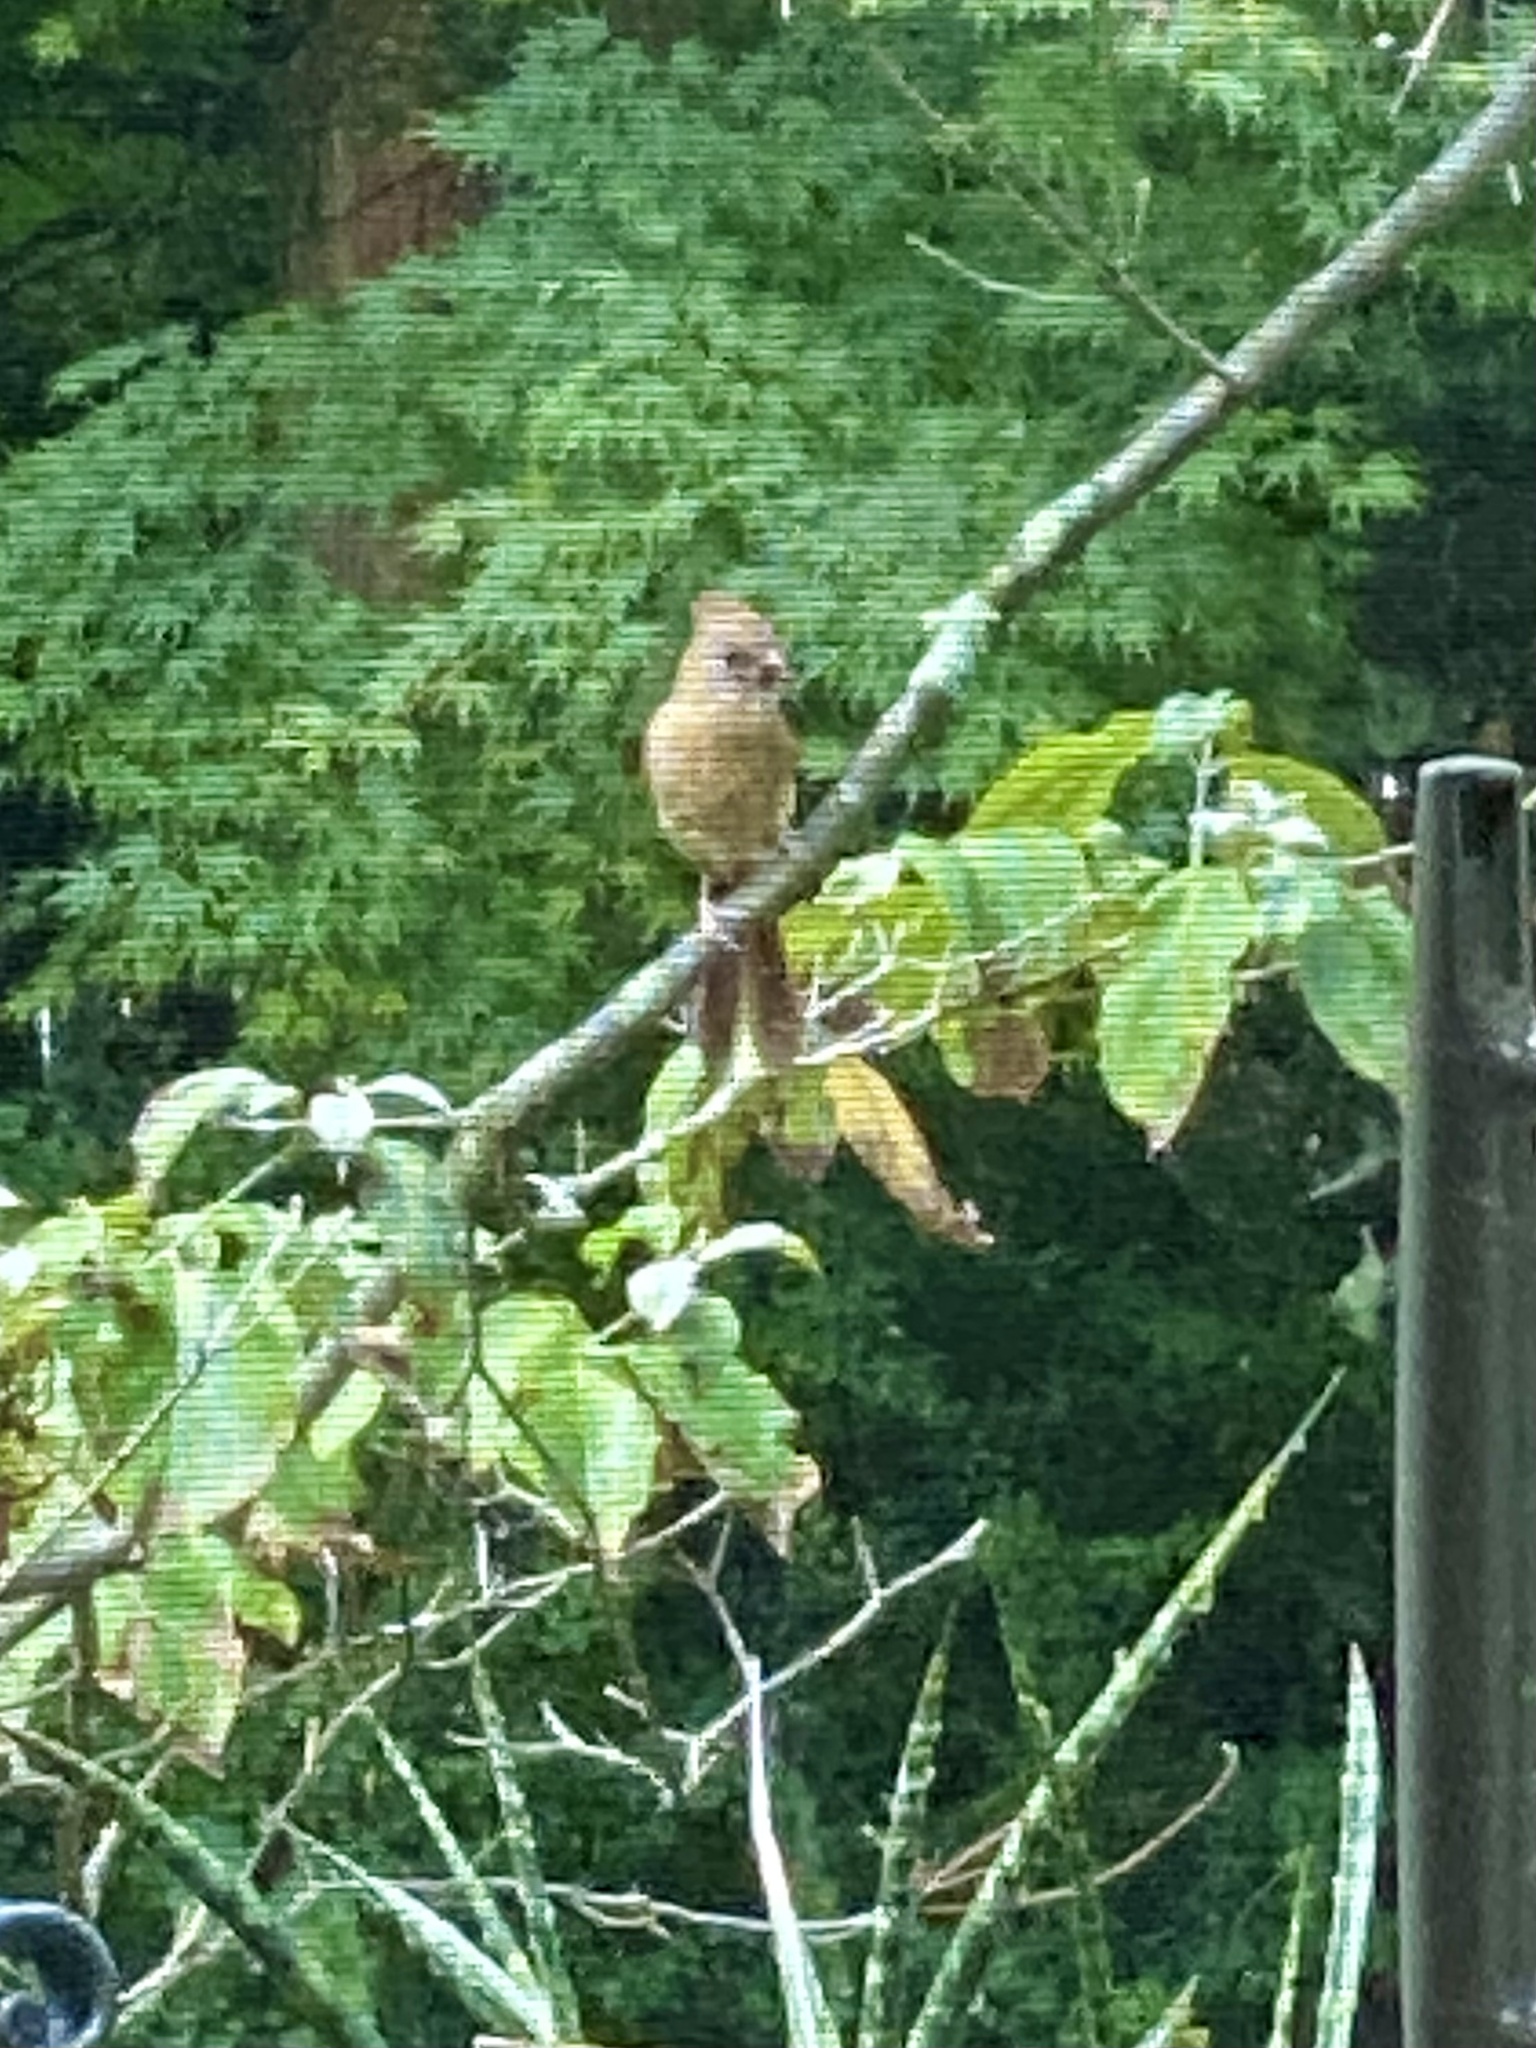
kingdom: Animalia
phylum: Chordata
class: Aves
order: Passeriformes
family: Cardinalidae
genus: Cardinalis
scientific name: Cardinalis cardinalis
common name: Northern cardinal
